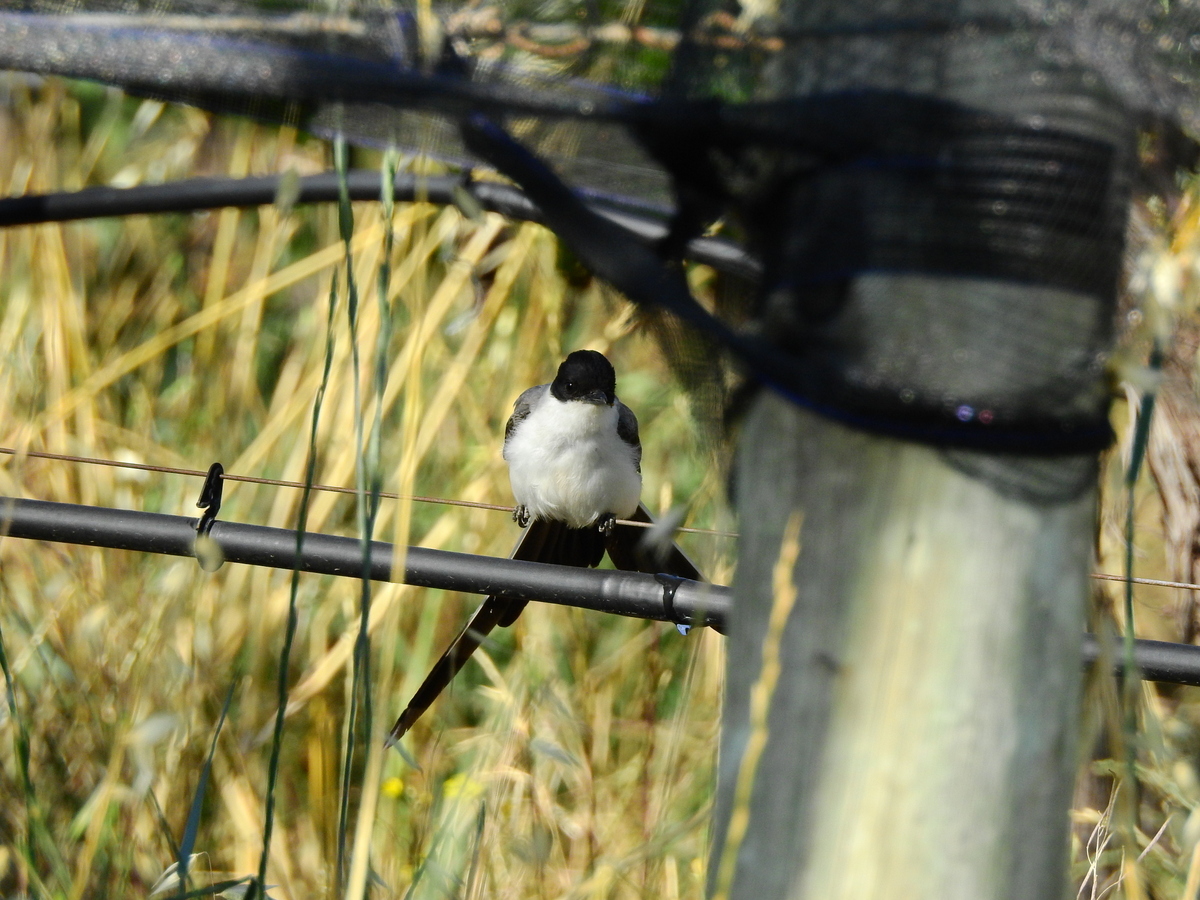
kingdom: Animalia
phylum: Chordata
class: Aves
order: Passeriformes
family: Tyrannidae
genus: Tyrannus
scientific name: Tyrannus savana
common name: Fork-tailed flycatcher
